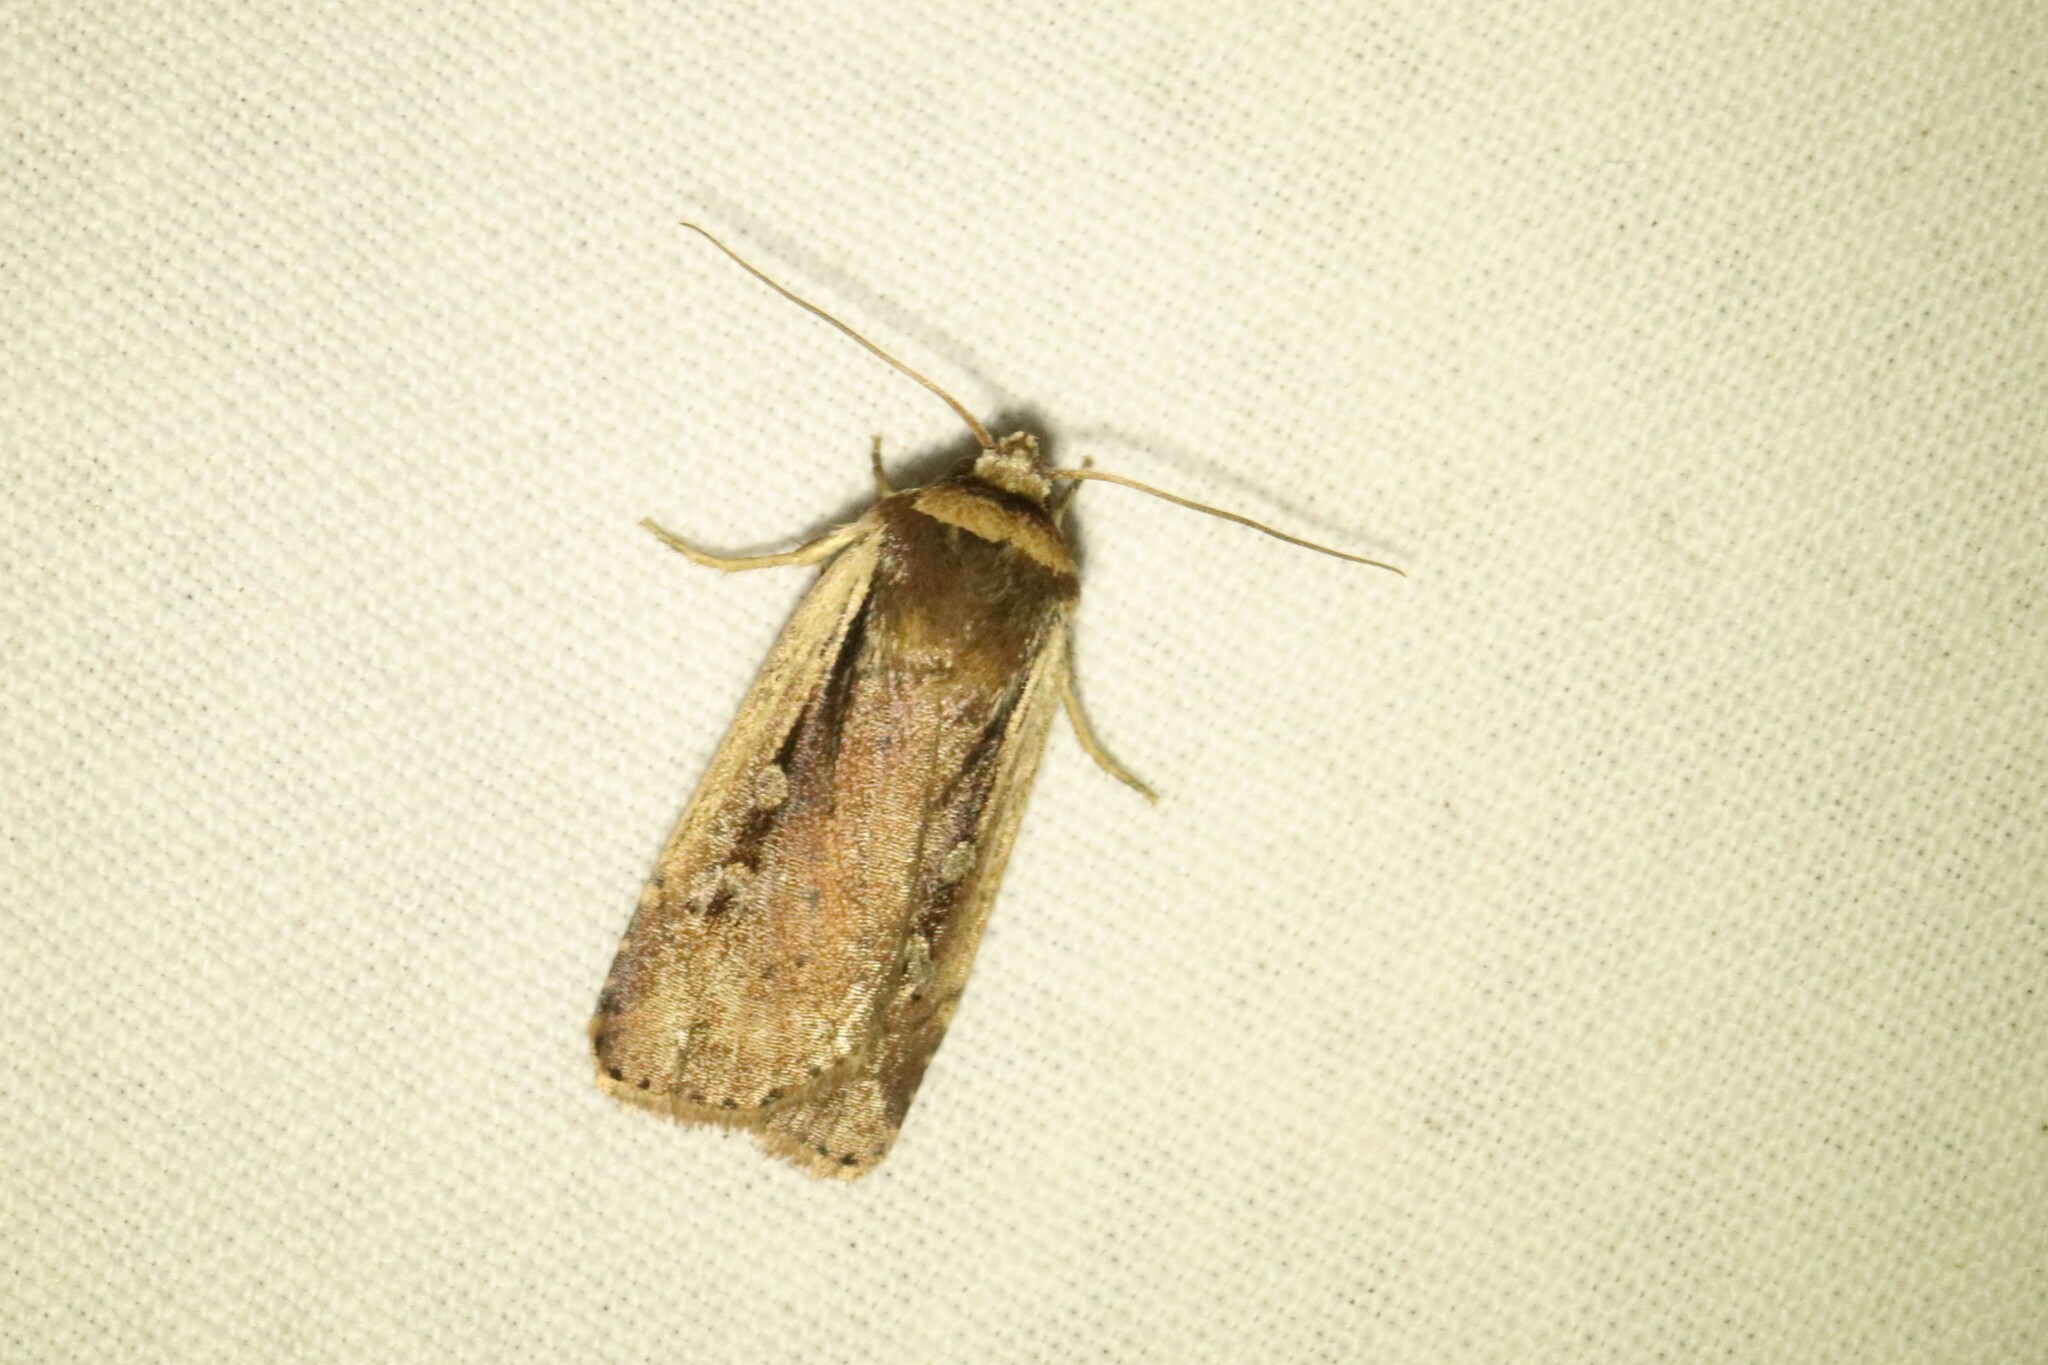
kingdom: Animalia
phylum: Arthropoda
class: Insecta
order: Lepidoptera
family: Noctuidae
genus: Ochropleura
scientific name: Ochropleura implecta
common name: Flame-shouldered dart
